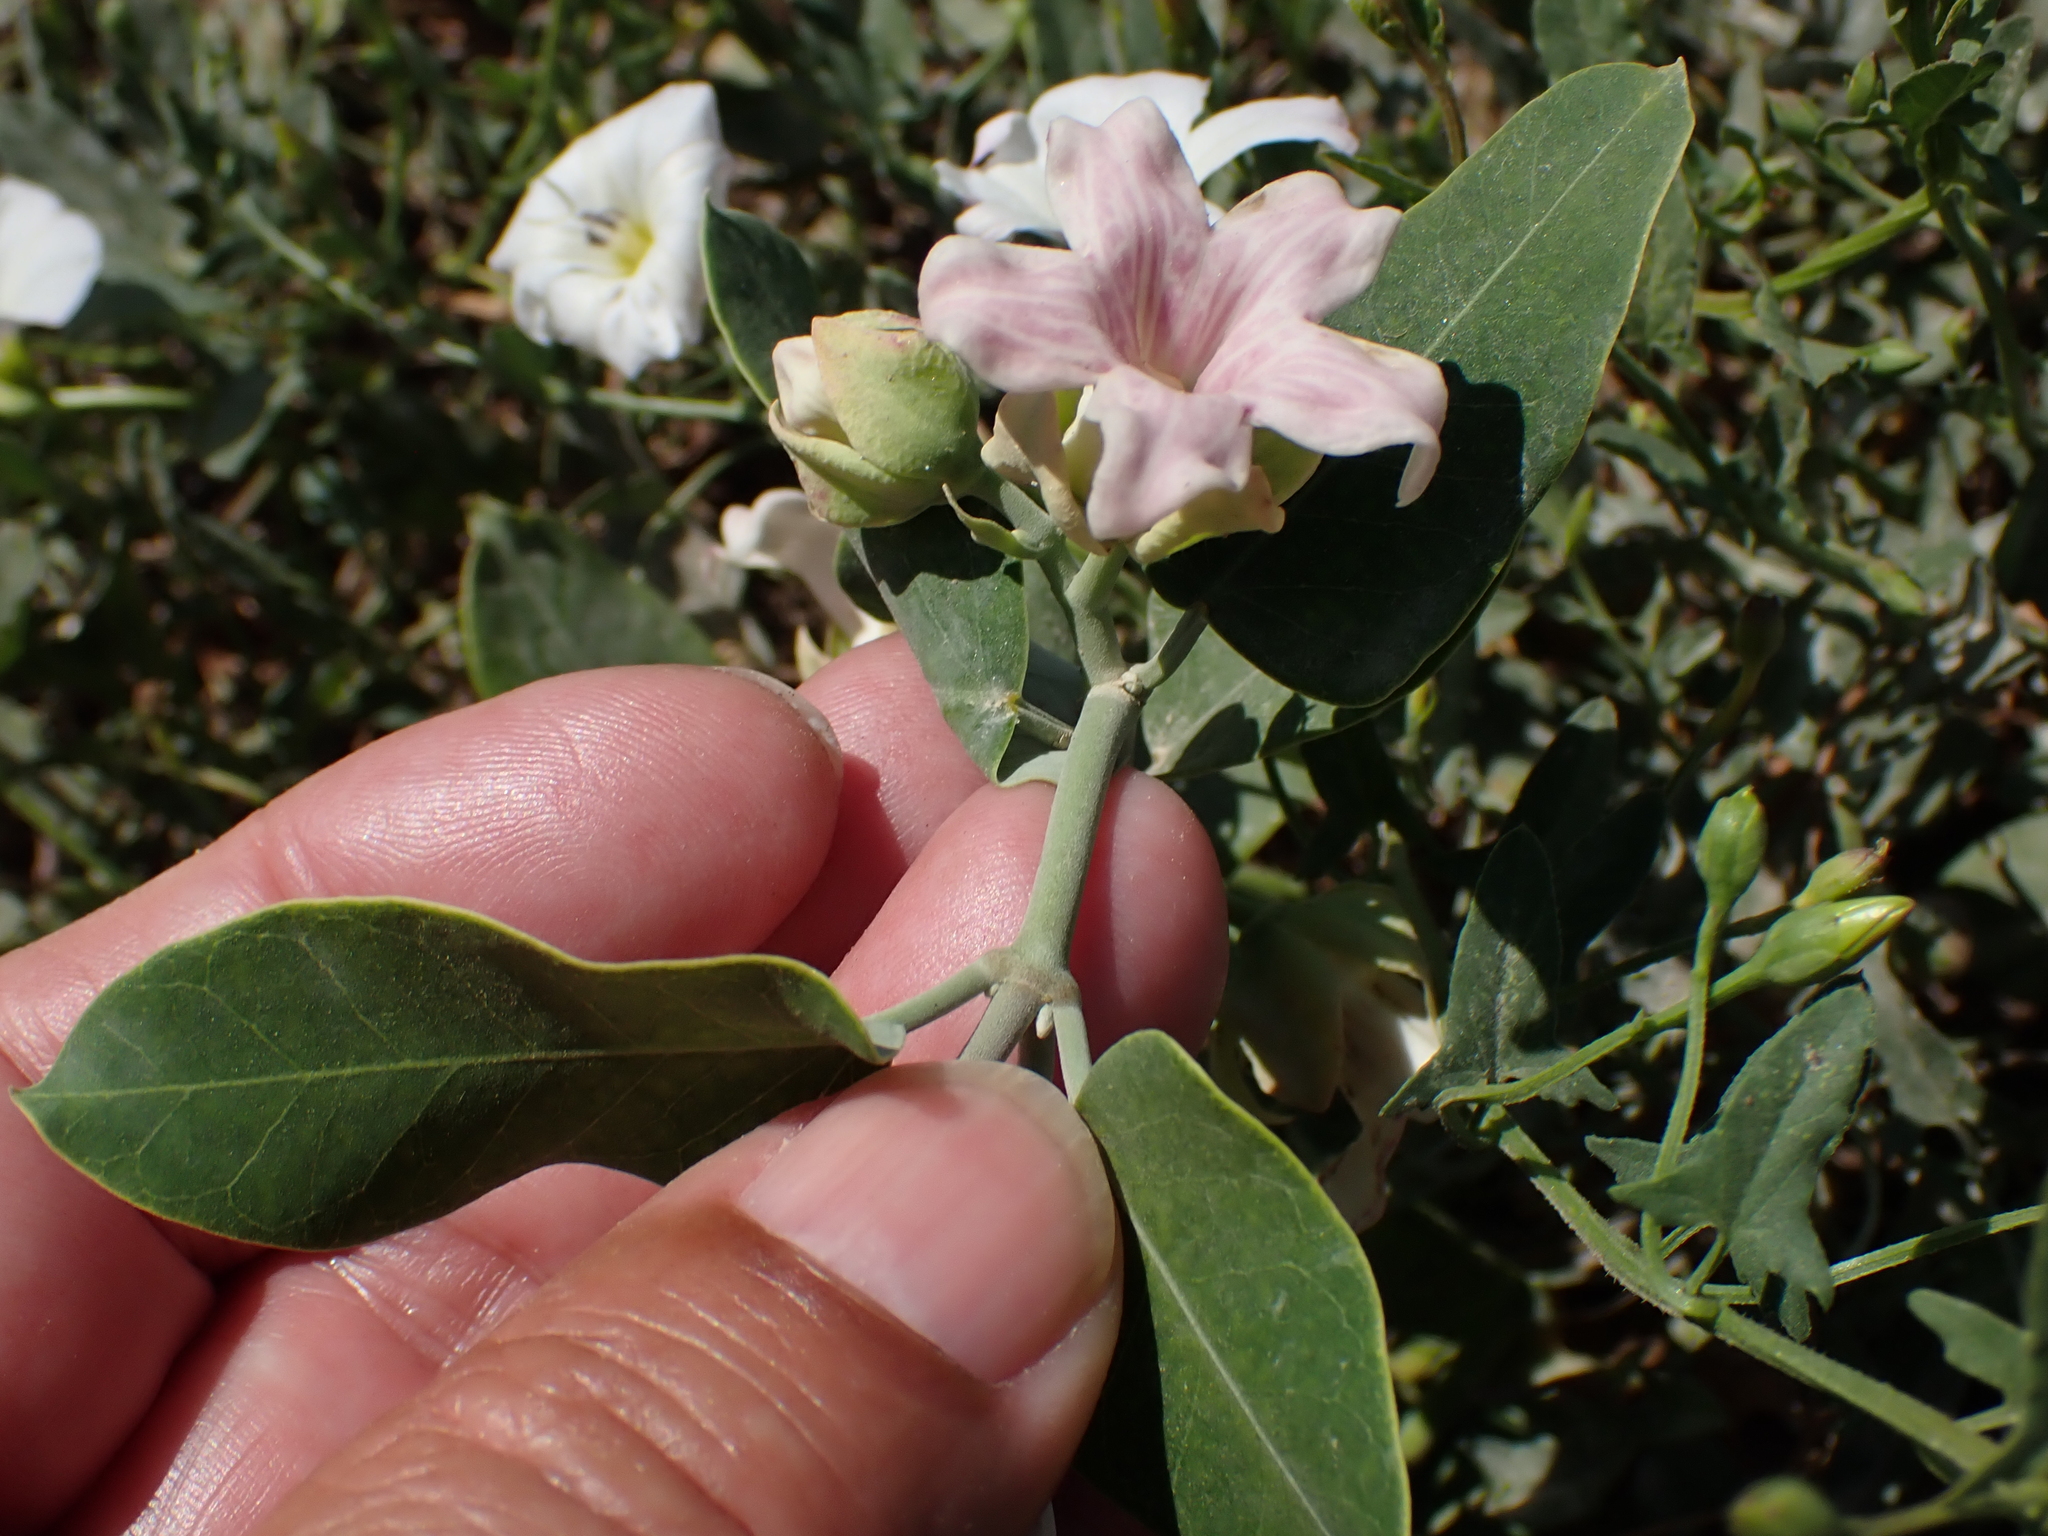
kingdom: Plantae
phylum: Tracheophyta
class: Magnoliopsida
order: Gentianales
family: Apocynaceae
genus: Araujia
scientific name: Araujia sericifera
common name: White bladderflower
